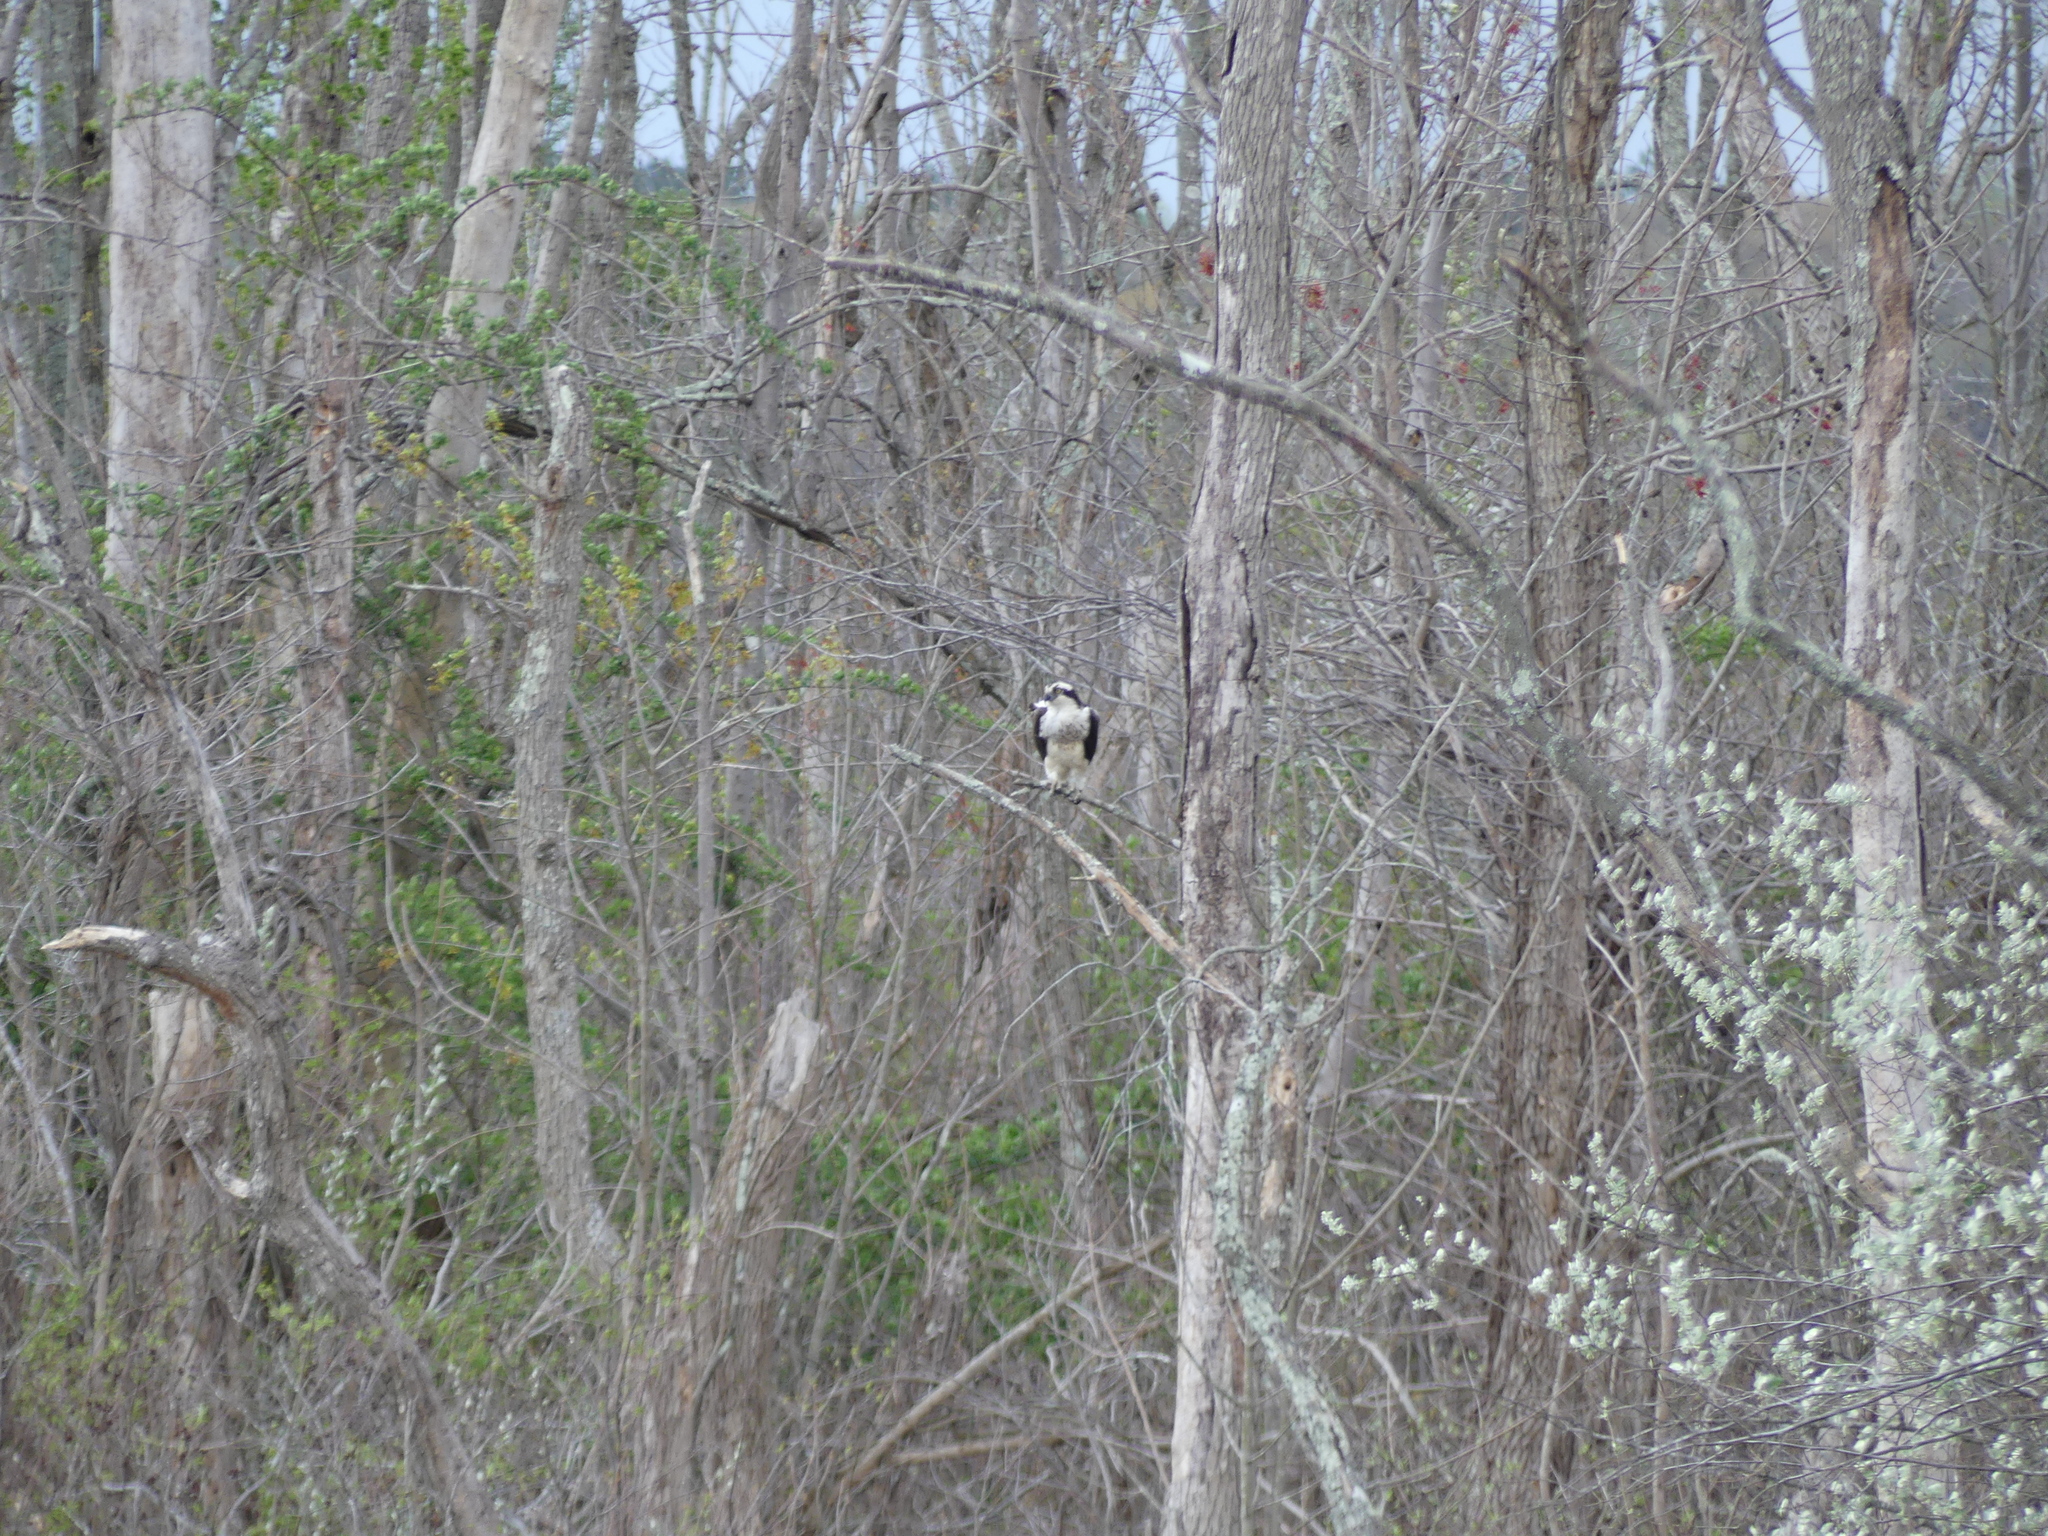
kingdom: Animalia
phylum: Chordata
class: Aves
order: Accipitriformes
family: Pandionidae
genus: Pandion
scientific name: Pandion haliaetus
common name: Osprey
